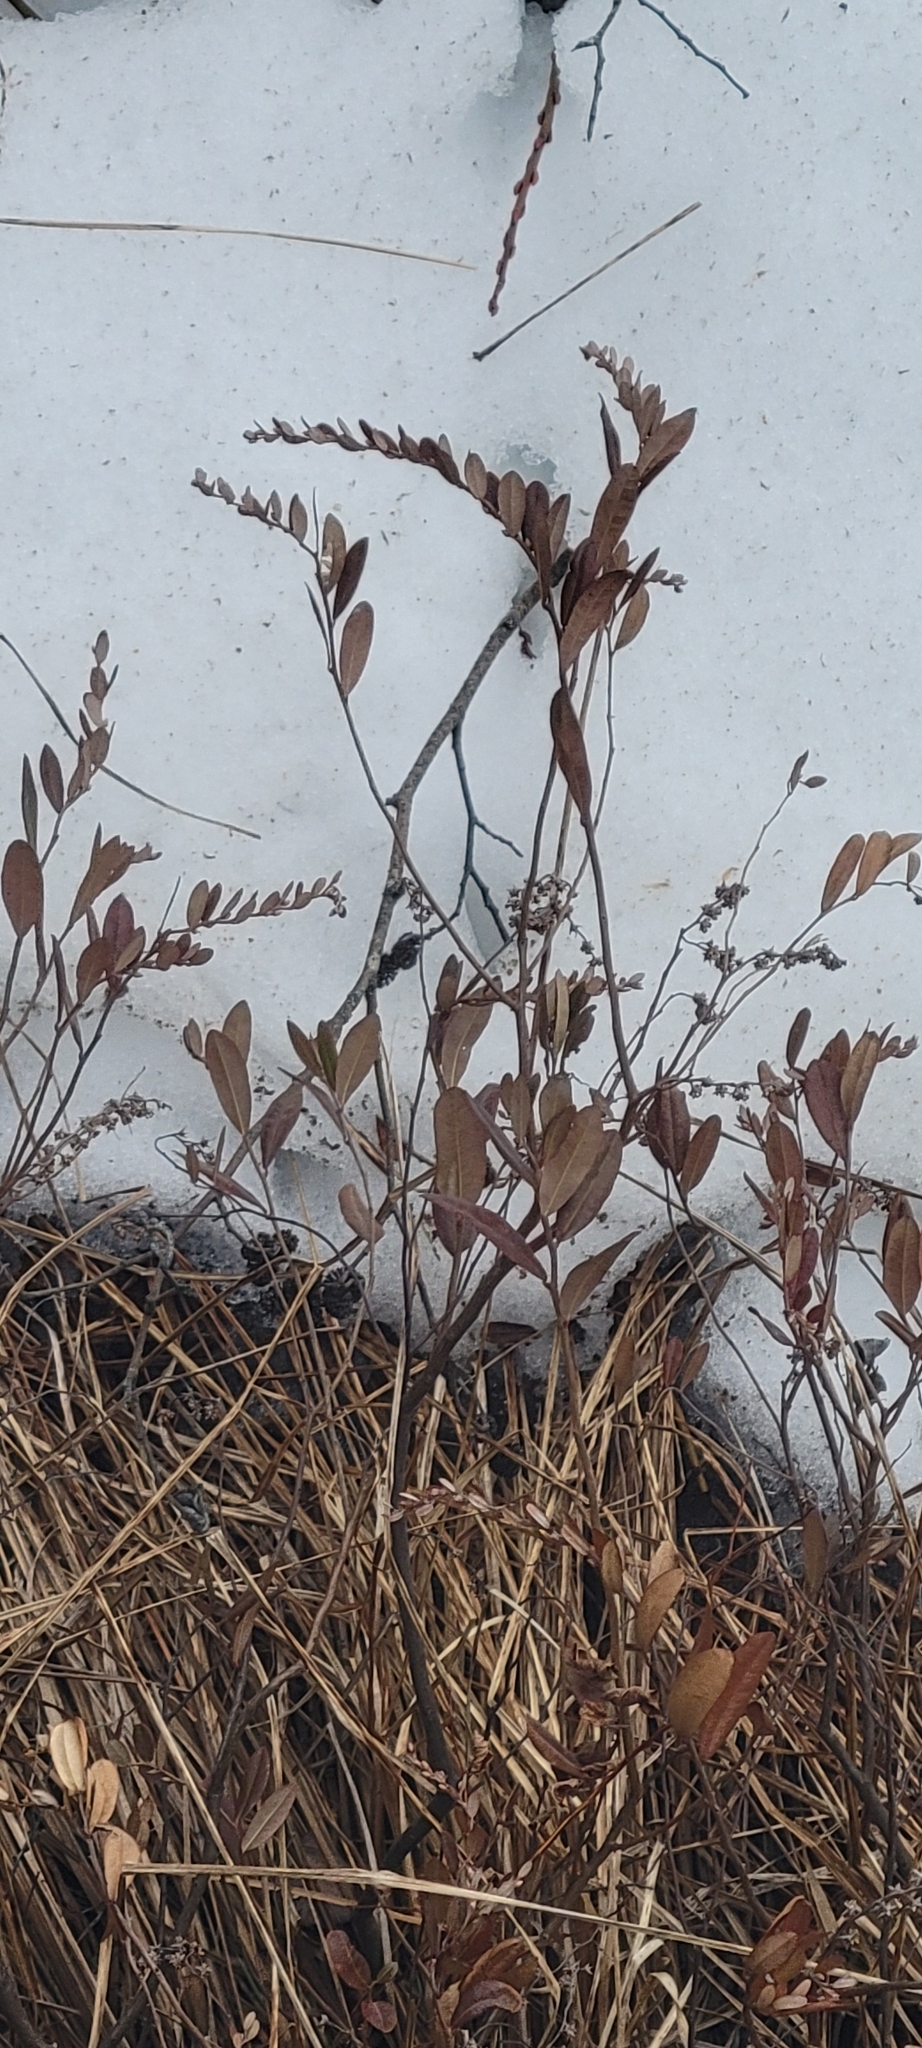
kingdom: Plantae
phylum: Tracheophyta
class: Magnoliopsida
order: Ericales
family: Ericaceae
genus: Chamaedaphne
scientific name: Chamaedaphne calyculata
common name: Leatherleaf
